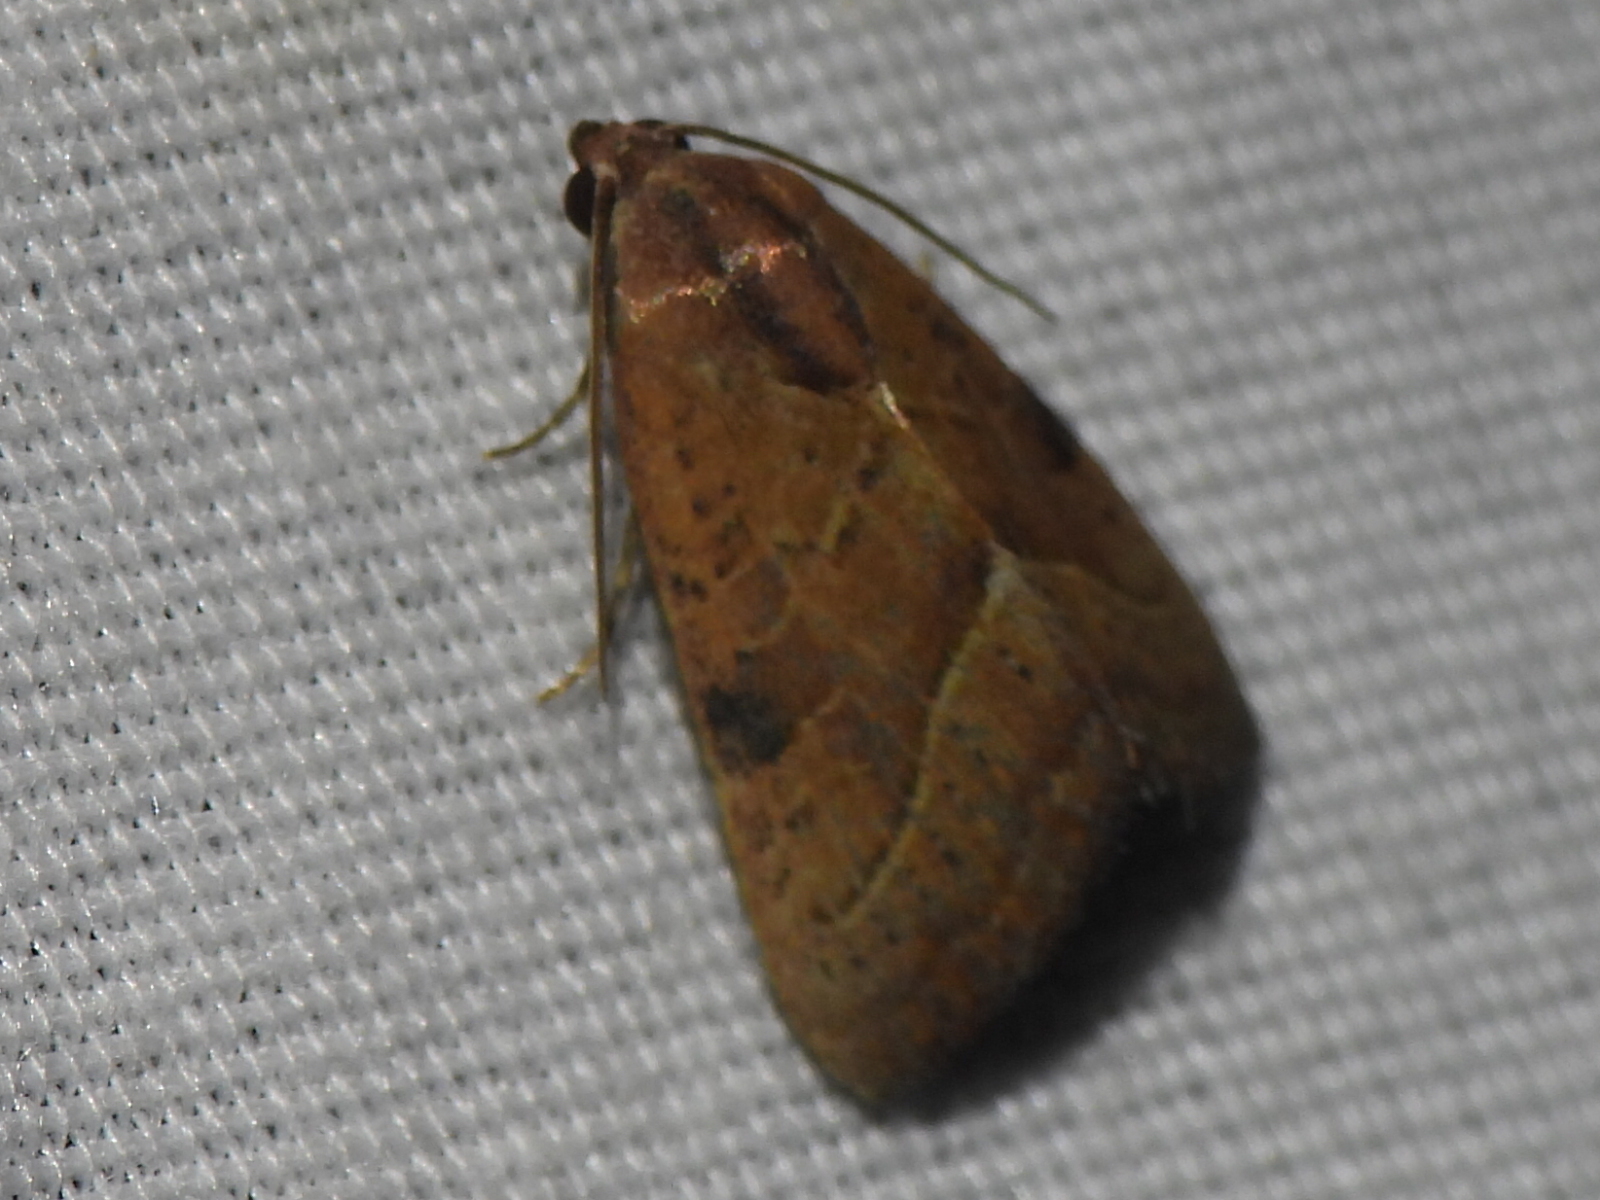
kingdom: Animalia
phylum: Arthropoda
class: Insecta
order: Lepidoptera
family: Noctuidae
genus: Galgula
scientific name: Galgula partita
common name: Wedgeling
